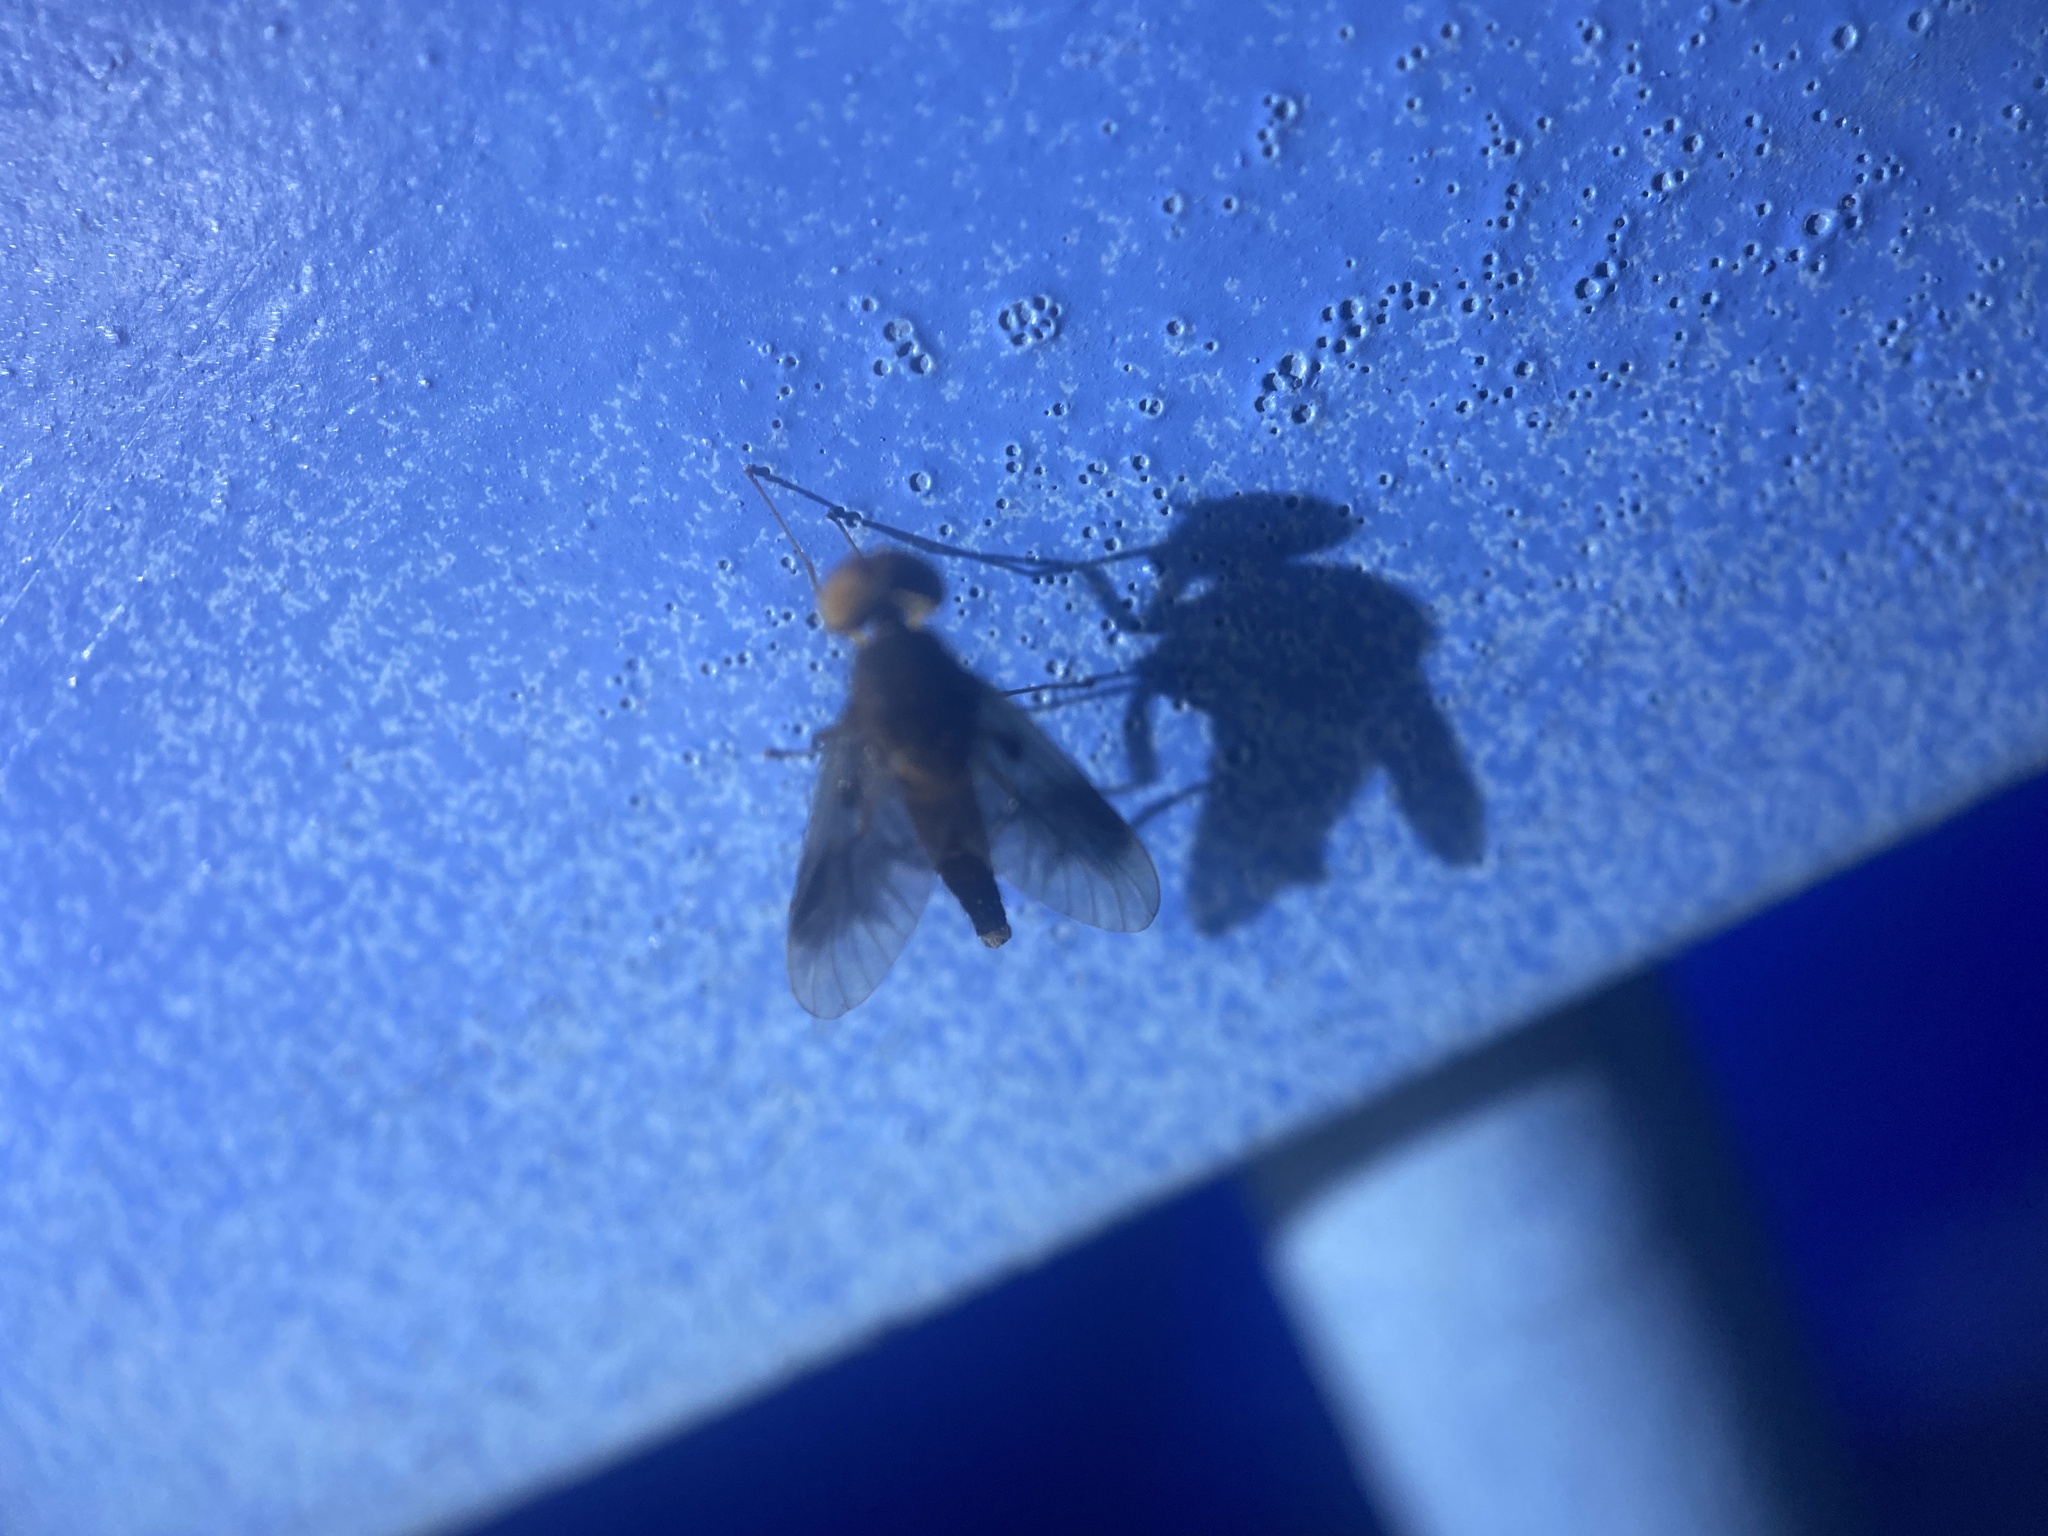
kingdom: Animalia
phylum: Arthropoda
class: Insecta
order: Diptera
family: Rhagionidae
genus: Chrysopilus
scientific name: Chrysopilus quadratus
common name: Quadrate snipe fly
